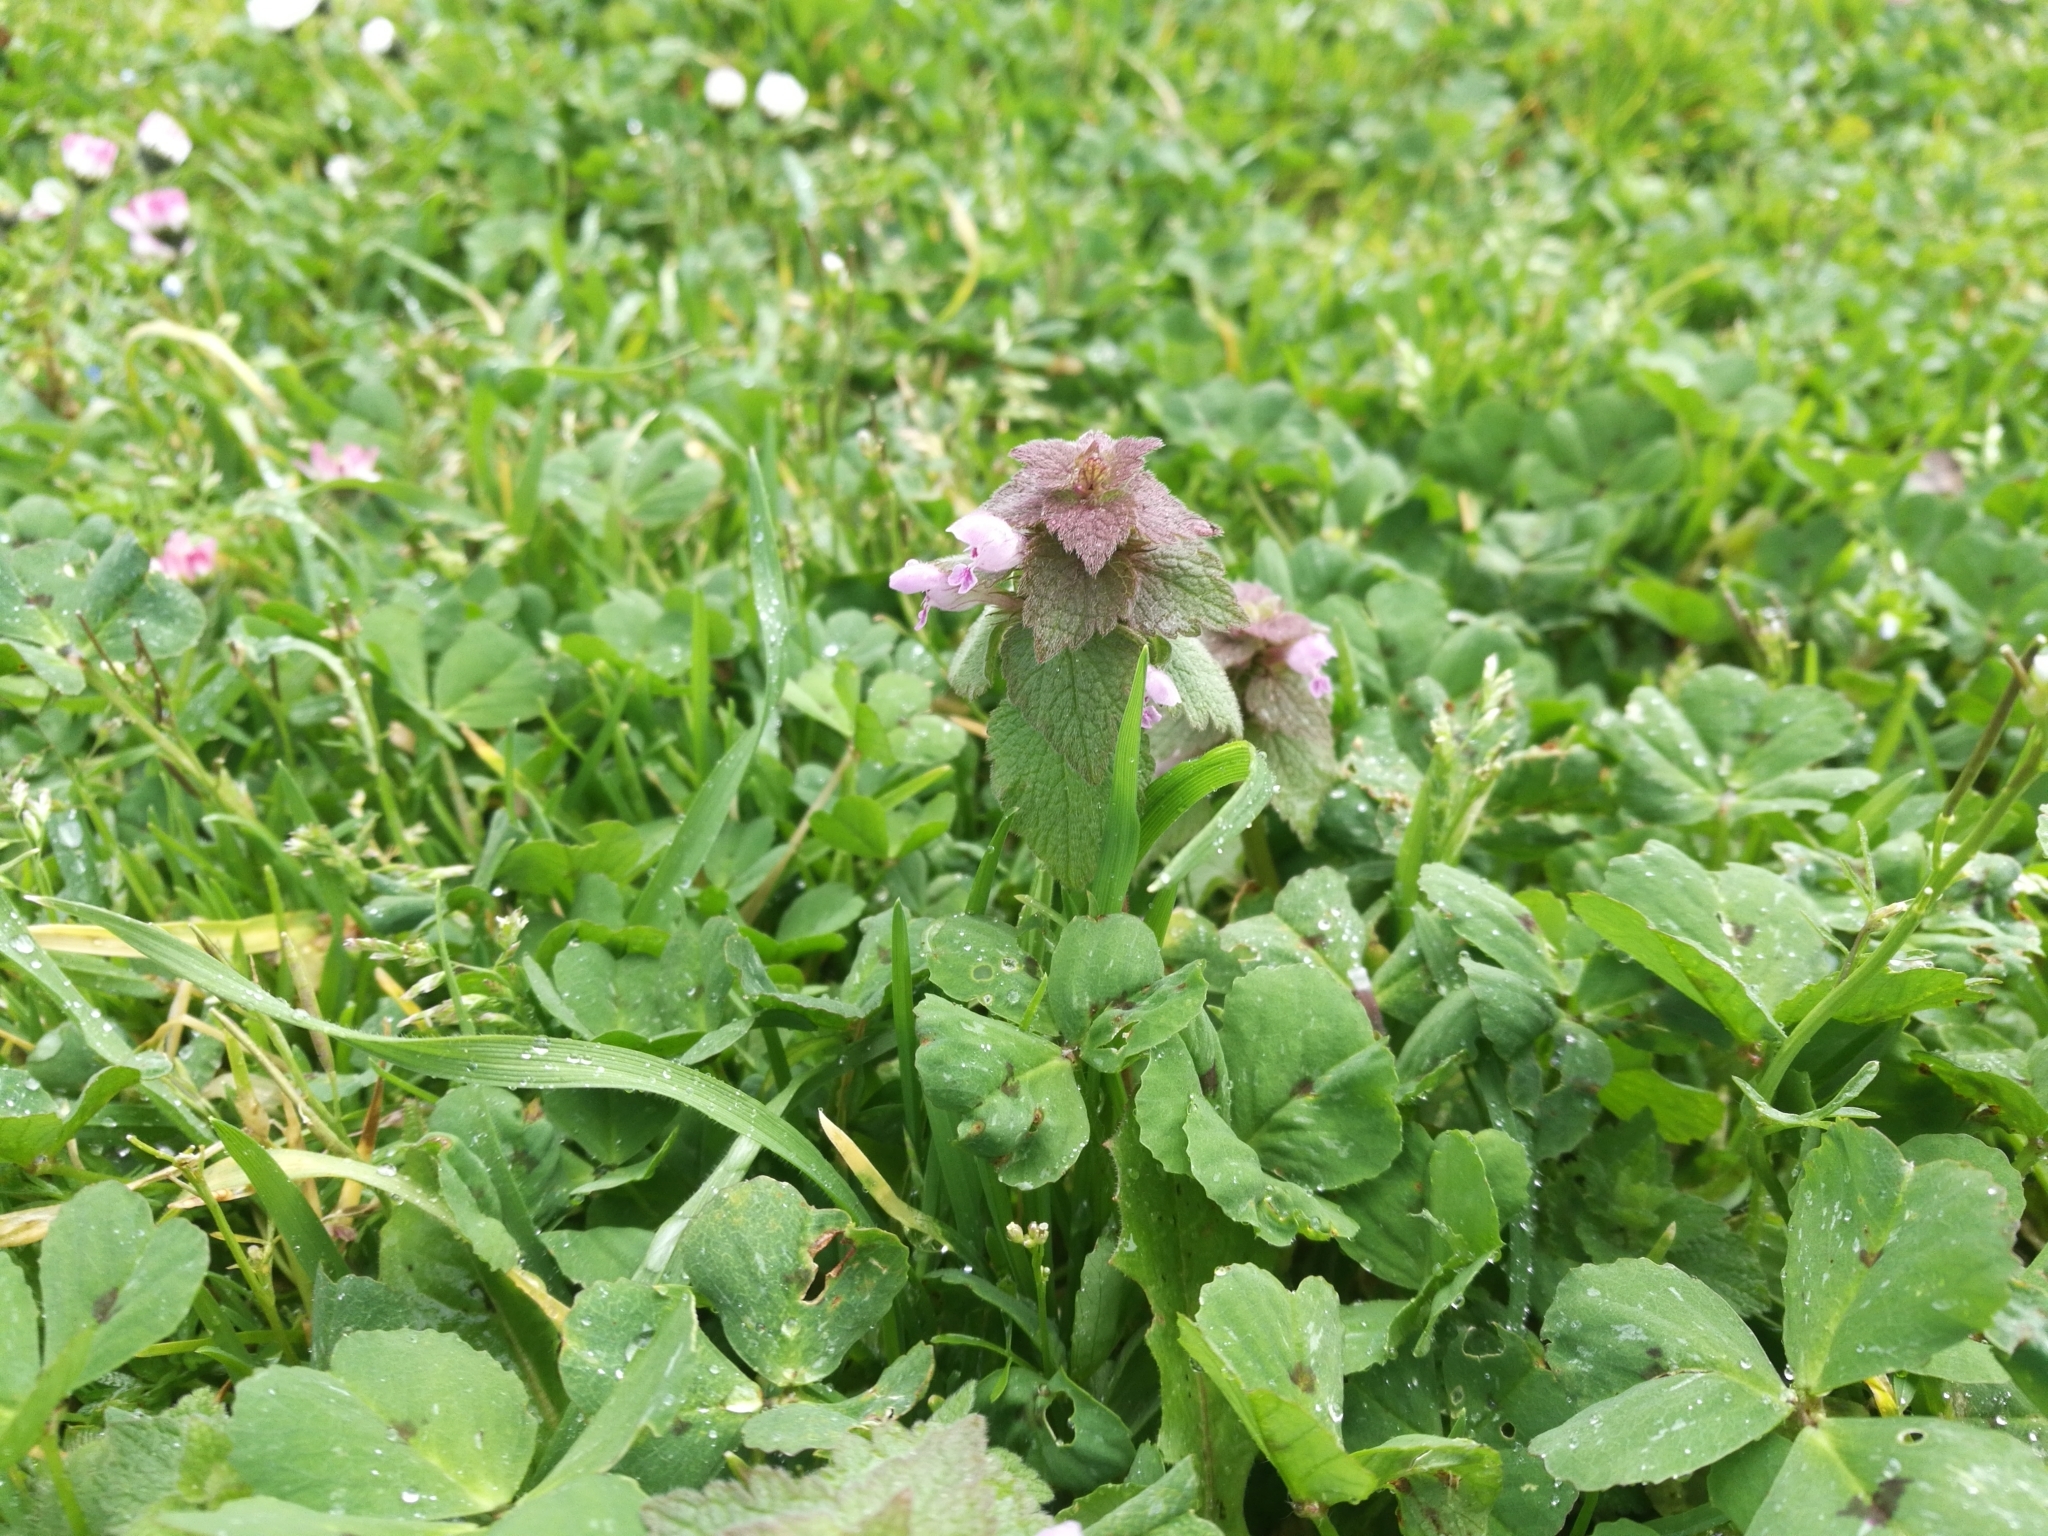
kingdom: Plantae
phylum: Tracheophyta
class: Magnoliopsida
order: Lamiales
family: Lamiaceae
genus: Lamium
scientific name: Lamium purpureum
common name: Red dead-nettle
